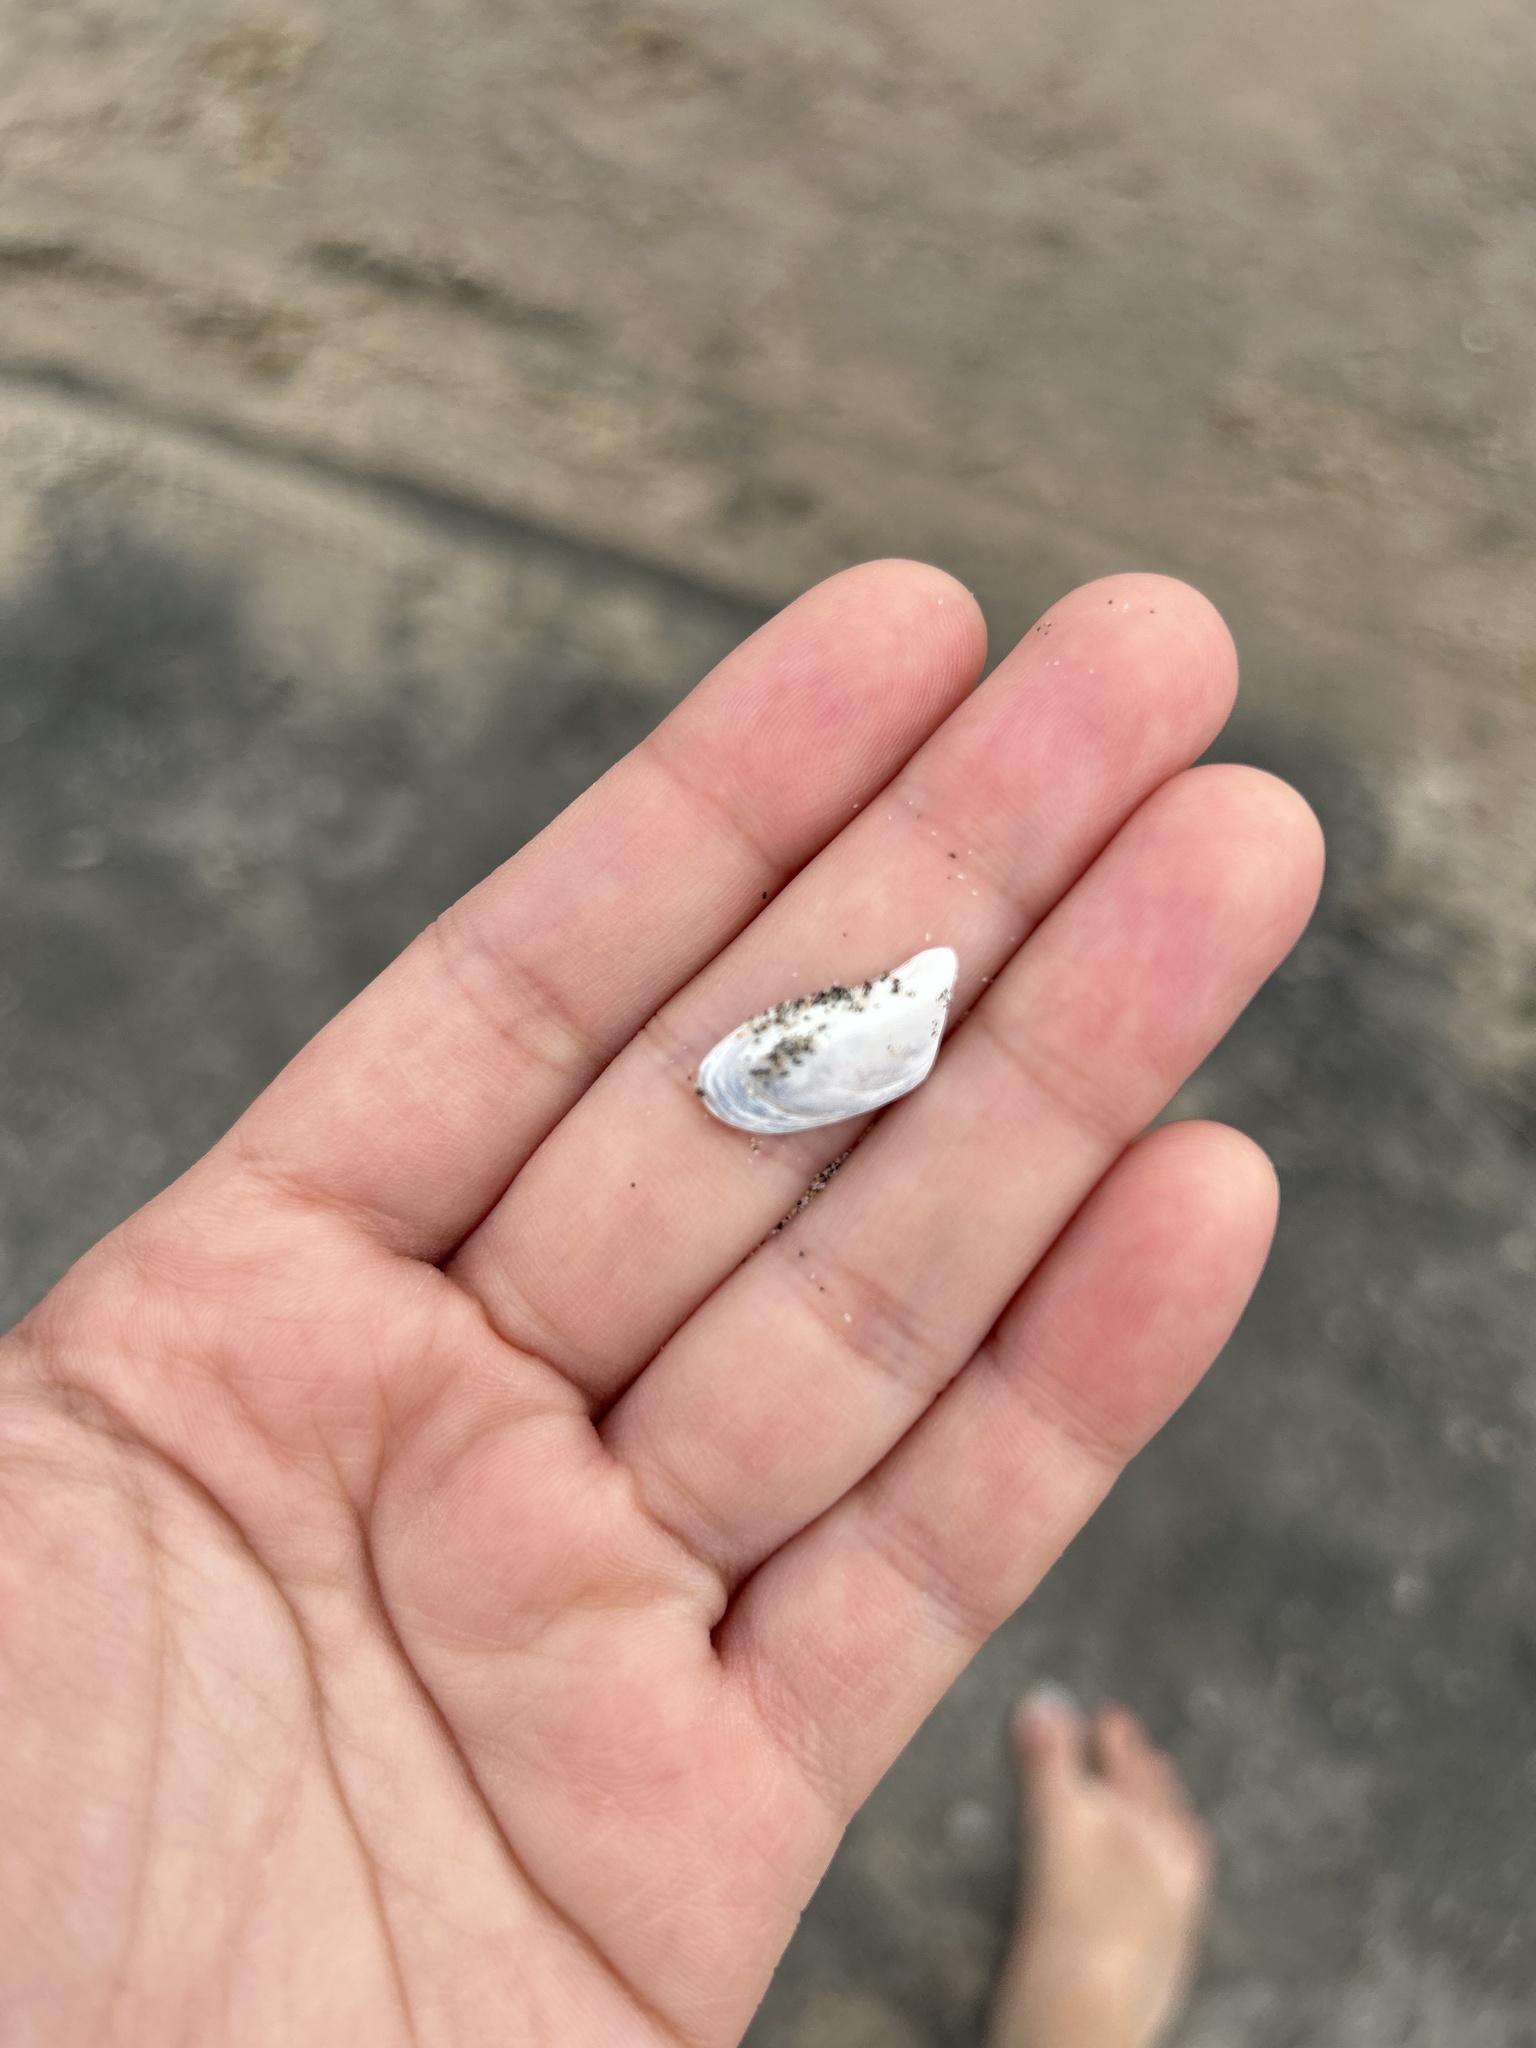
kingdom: Animalia
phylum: Mollusca
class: Bivalvia
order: Myida
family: Dreissenidae
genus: Dreissena
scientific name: Dreissena polymorpha
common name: Zebra mussel
